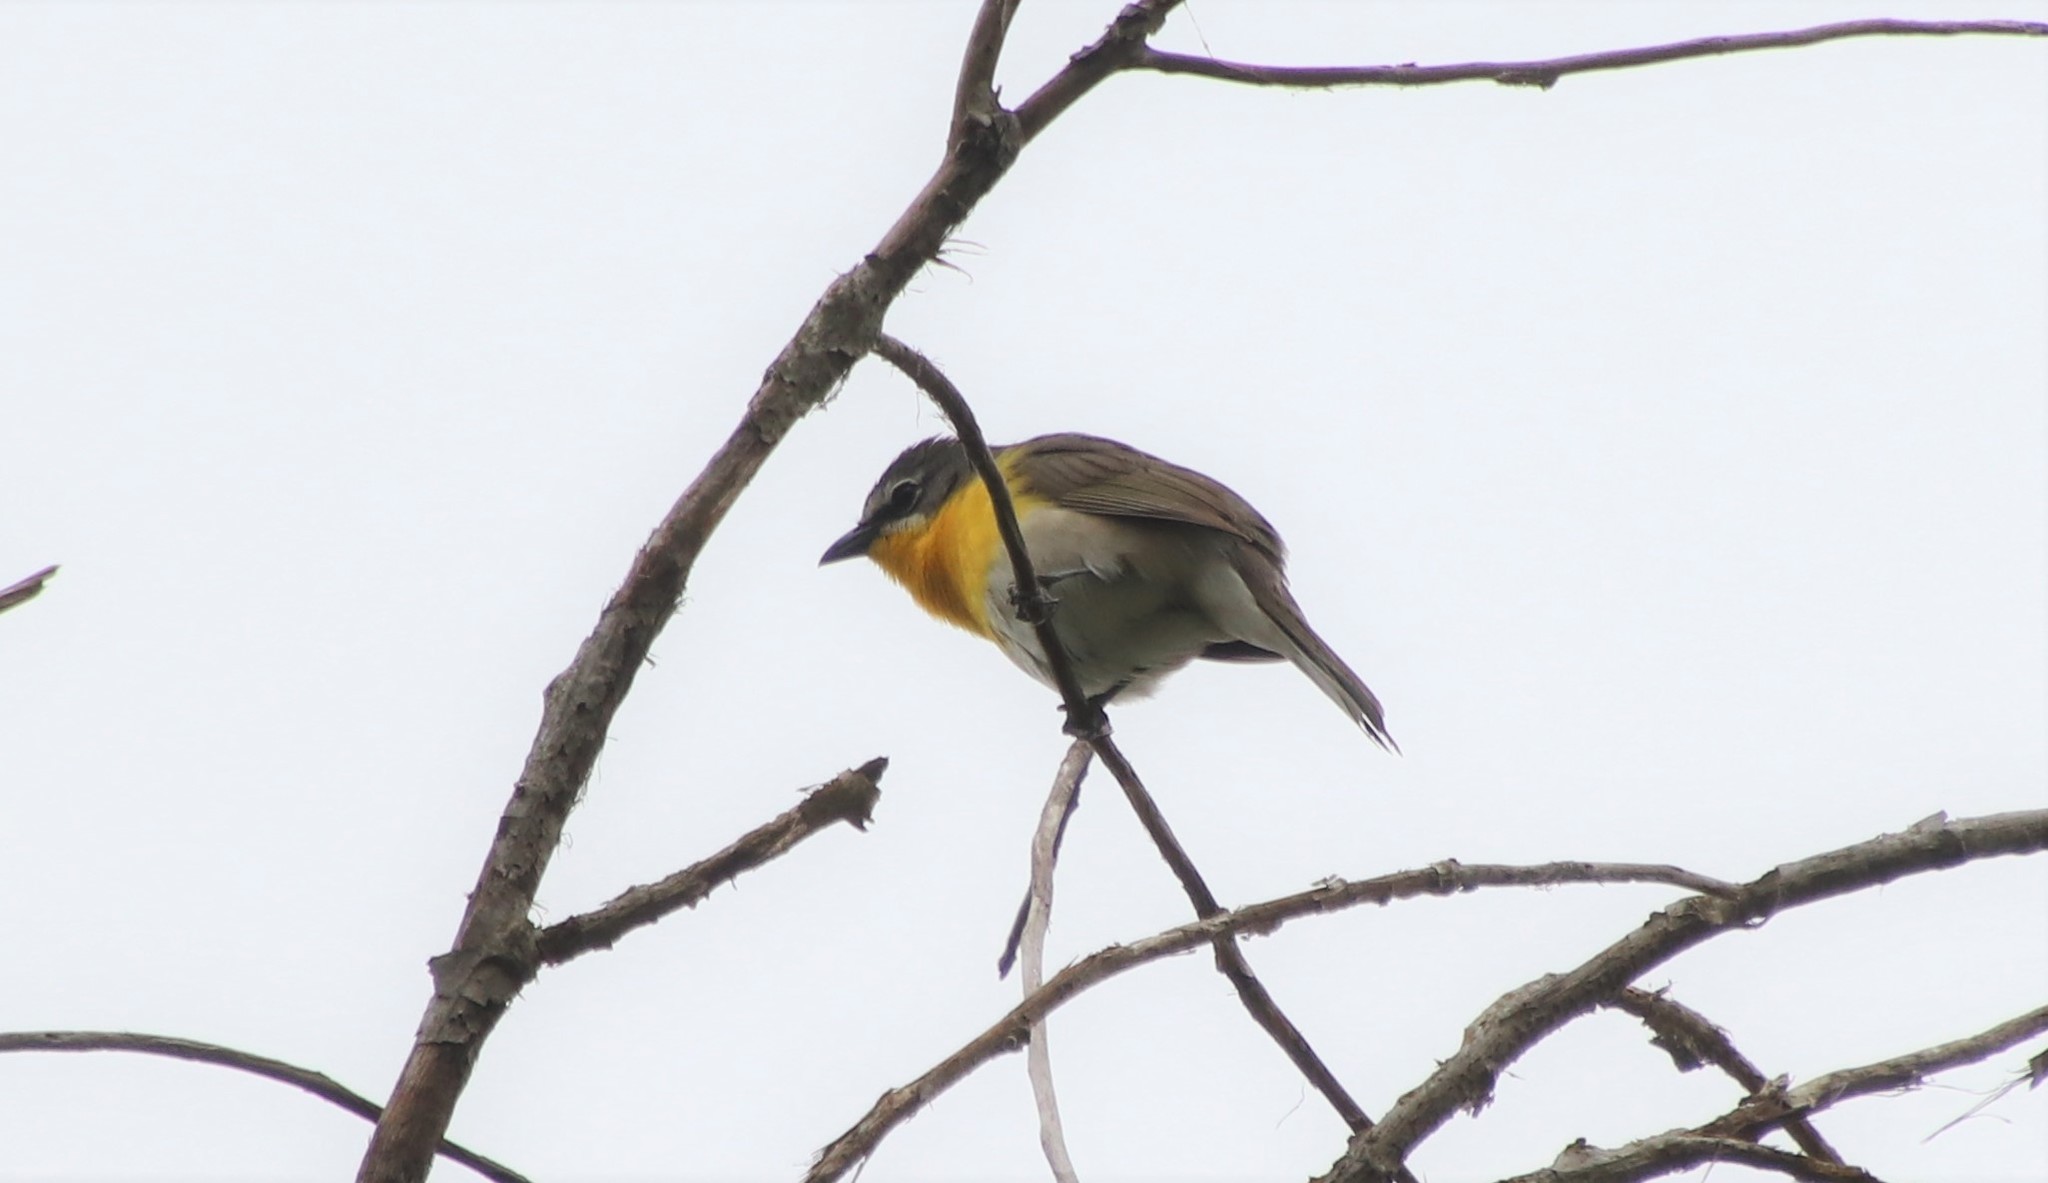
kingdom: Animalia
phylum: Chordata
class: Aves
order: Passeriformes
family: Parulidae
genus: Icteria
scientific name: Icteria virens
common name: Yellow-breasted chat
